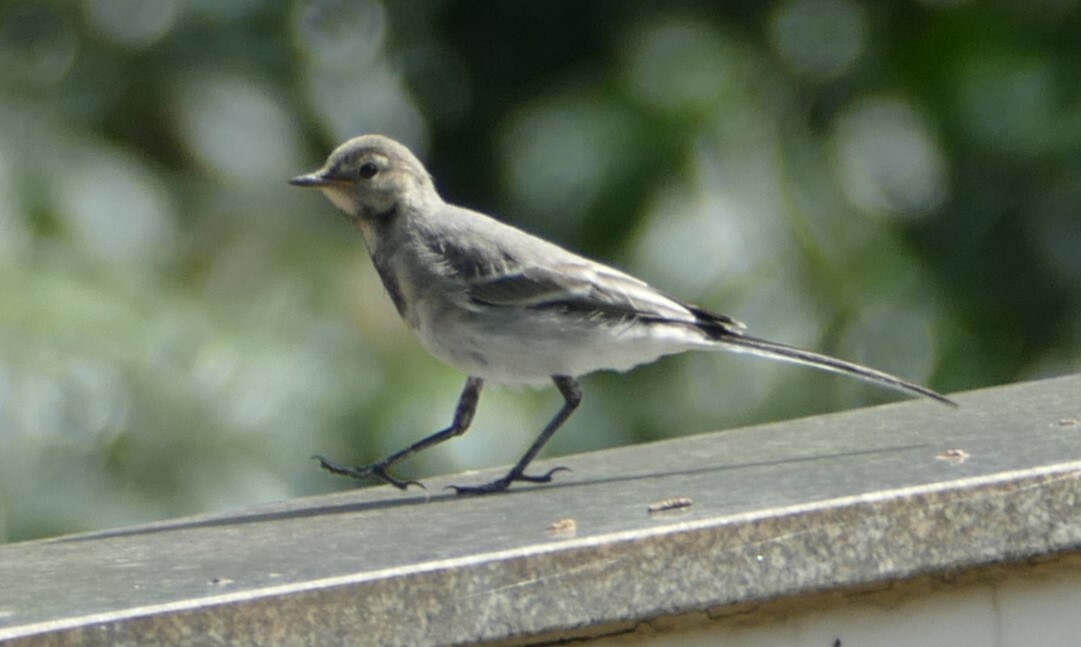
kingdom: Animalia
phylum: Chordata
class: Aves
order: Passeriformes
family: Motacillidae
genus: Motacilla
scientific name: Motacilla alba
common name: White wagtail
